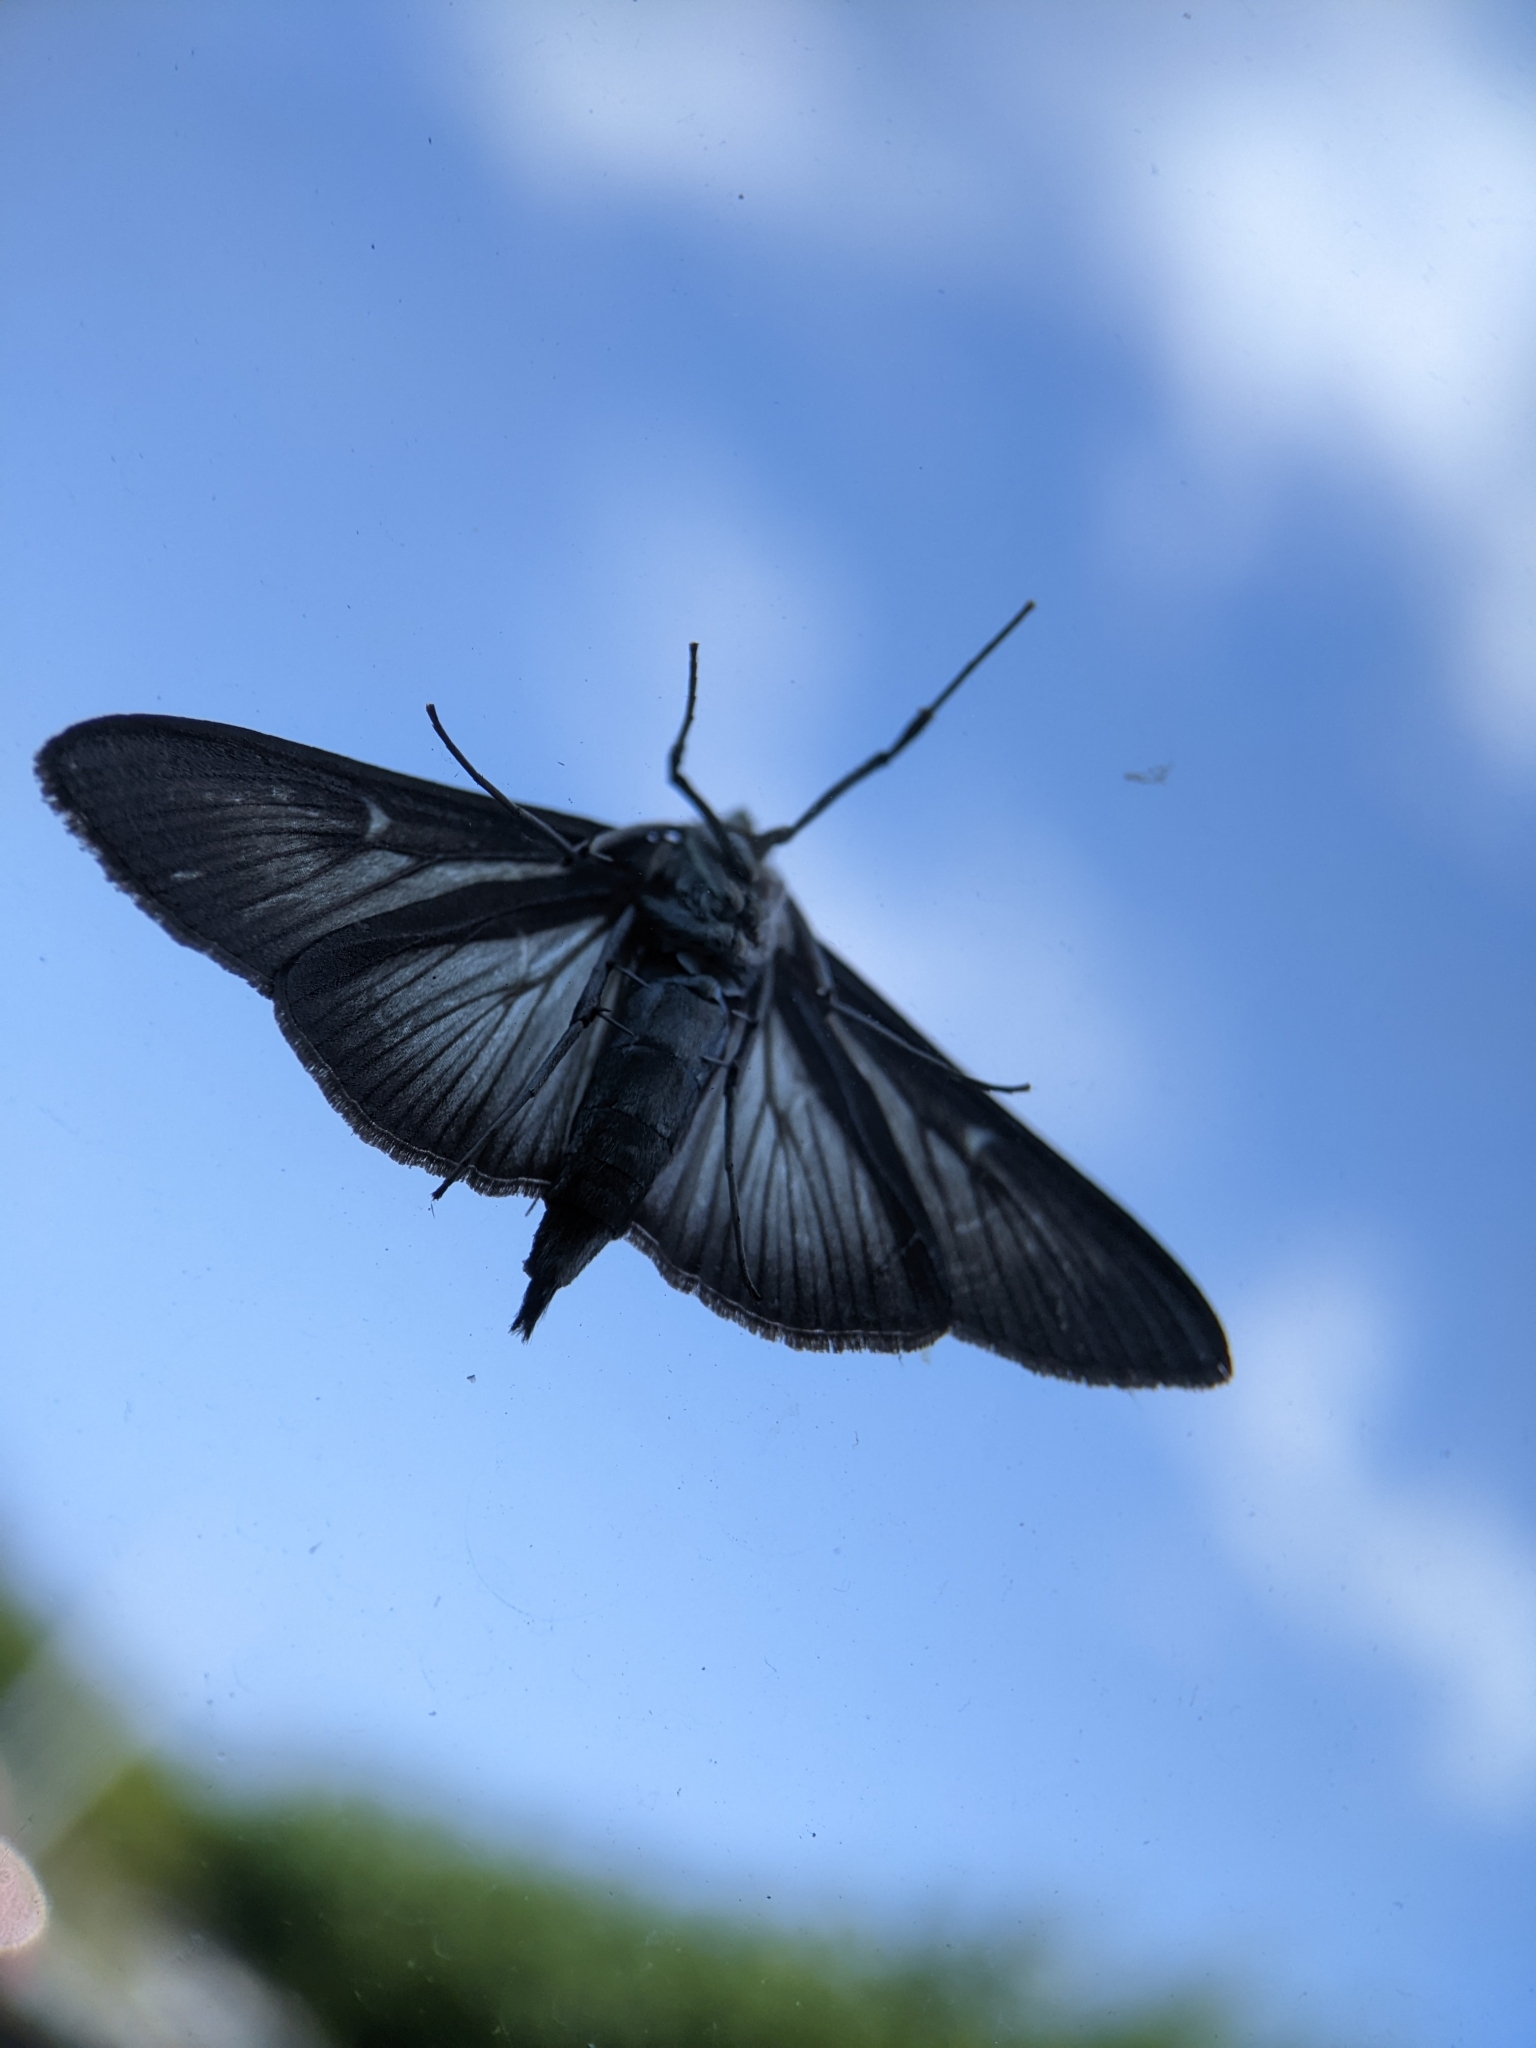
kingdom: Animalia
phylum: Arthropoda
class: Insecta
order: Lepidoptera
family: Crambidae
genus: Cydalima
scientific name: Cydalima perspectalis
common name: Box tree moth
